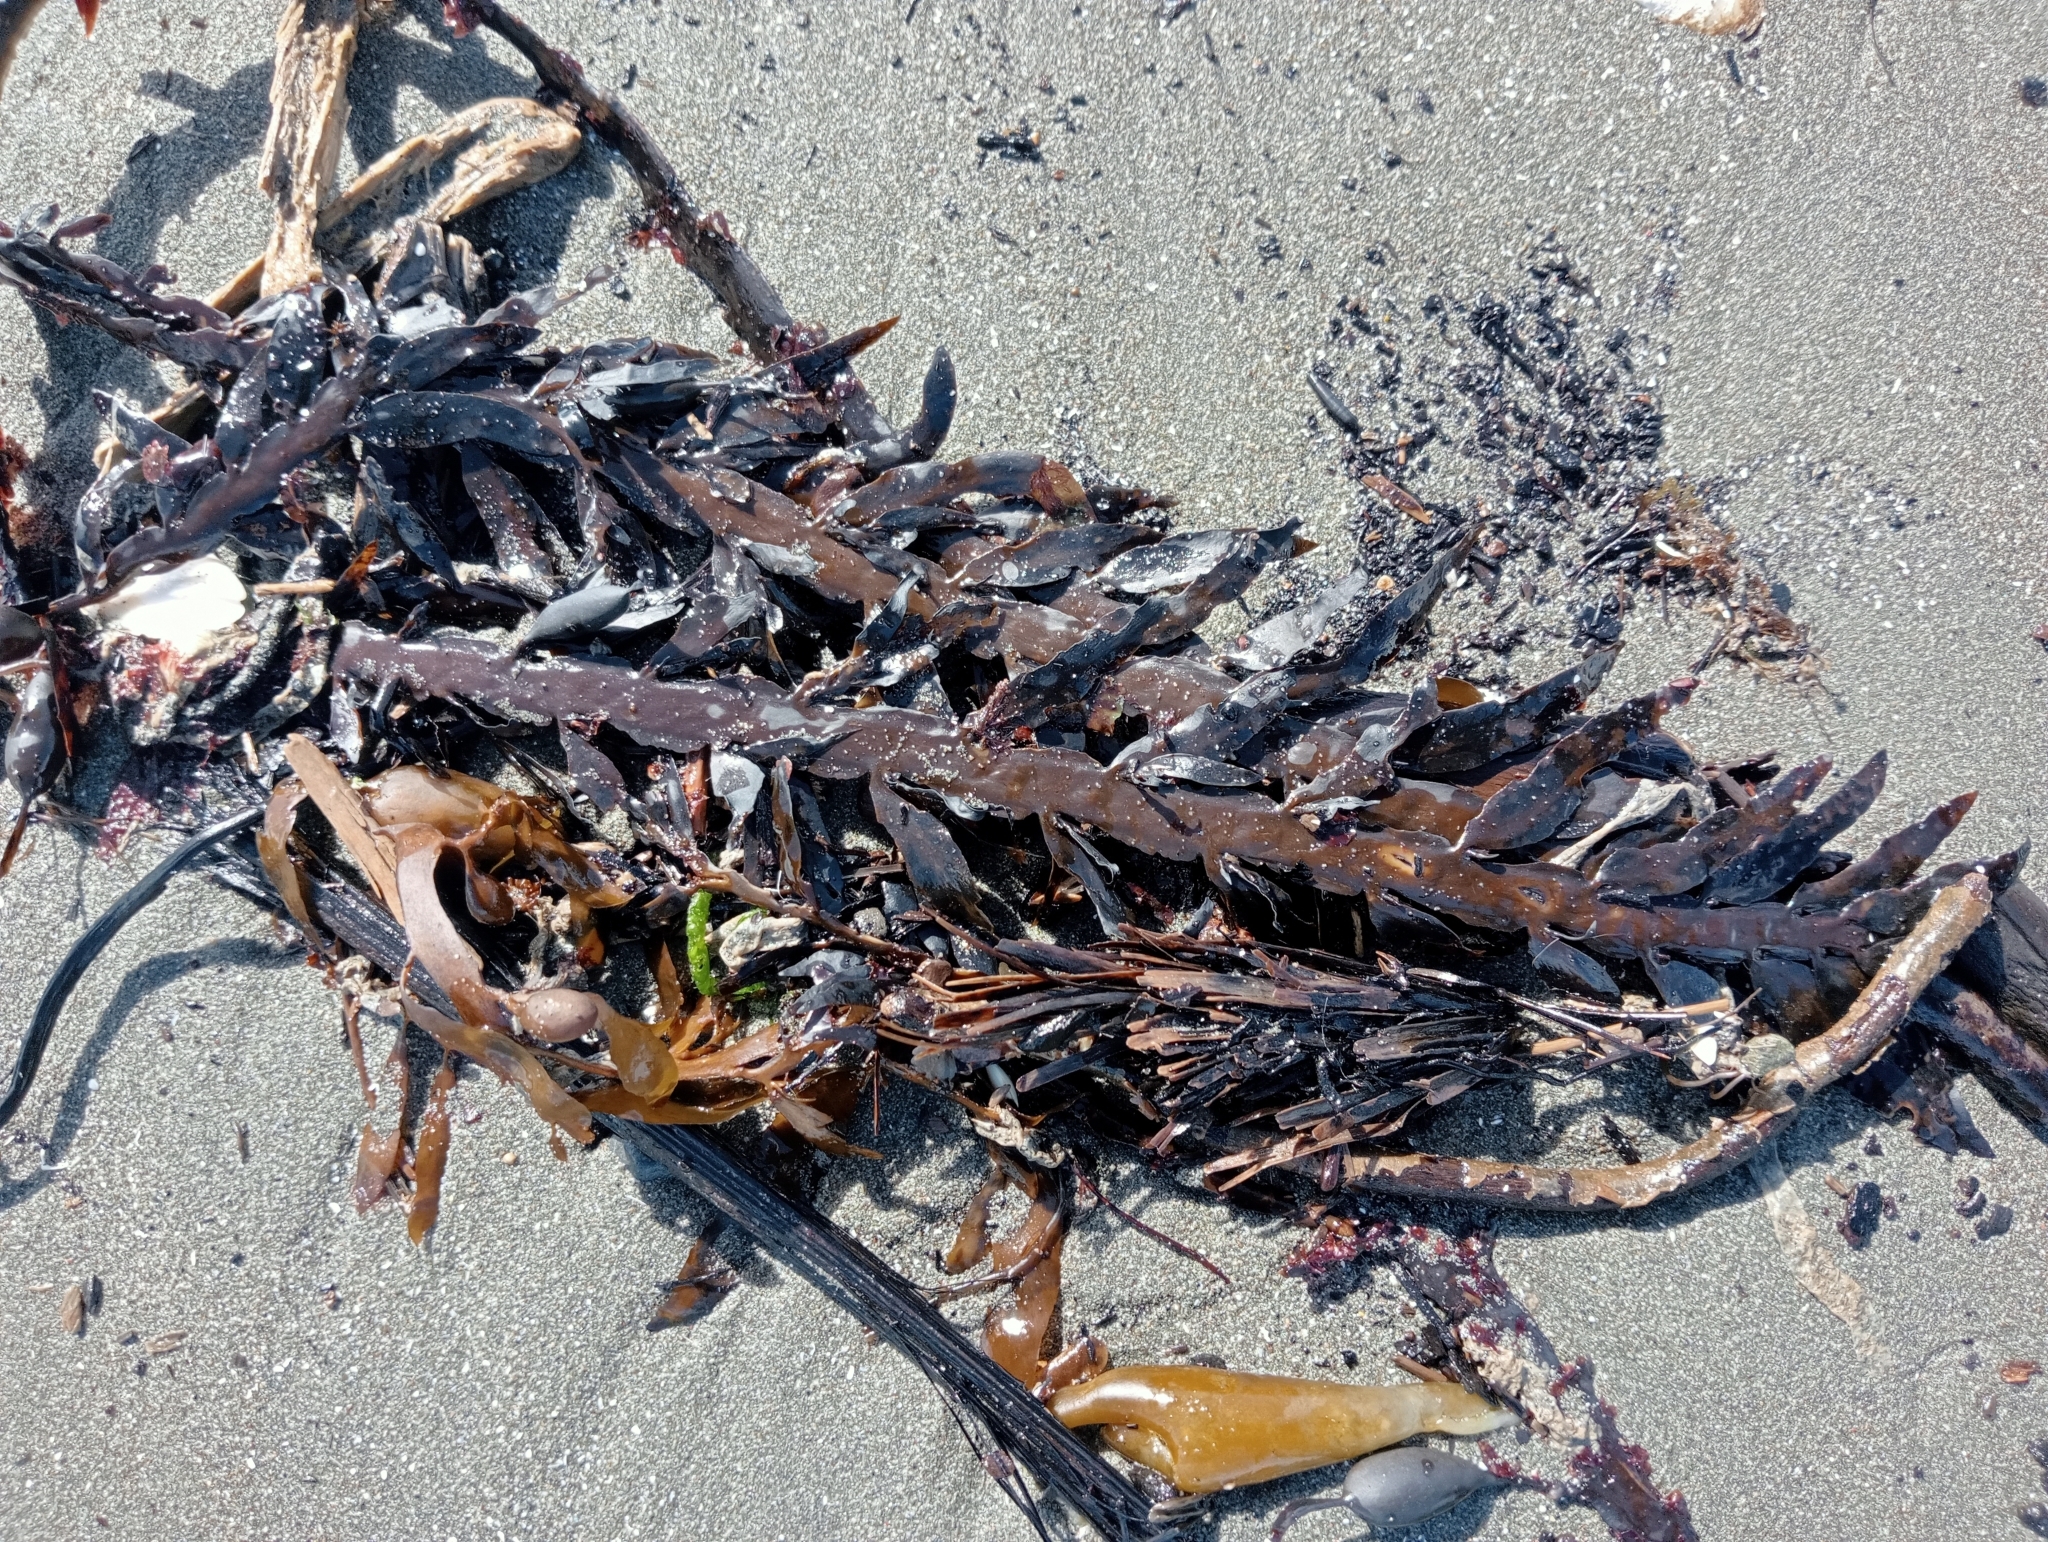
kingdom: Chromista
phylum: Ochrophyta
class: Phaeophyceae
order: Fucales
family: Sargassaceae
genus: Carpophyllum
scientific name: Carpophyllum maschalocarpum
